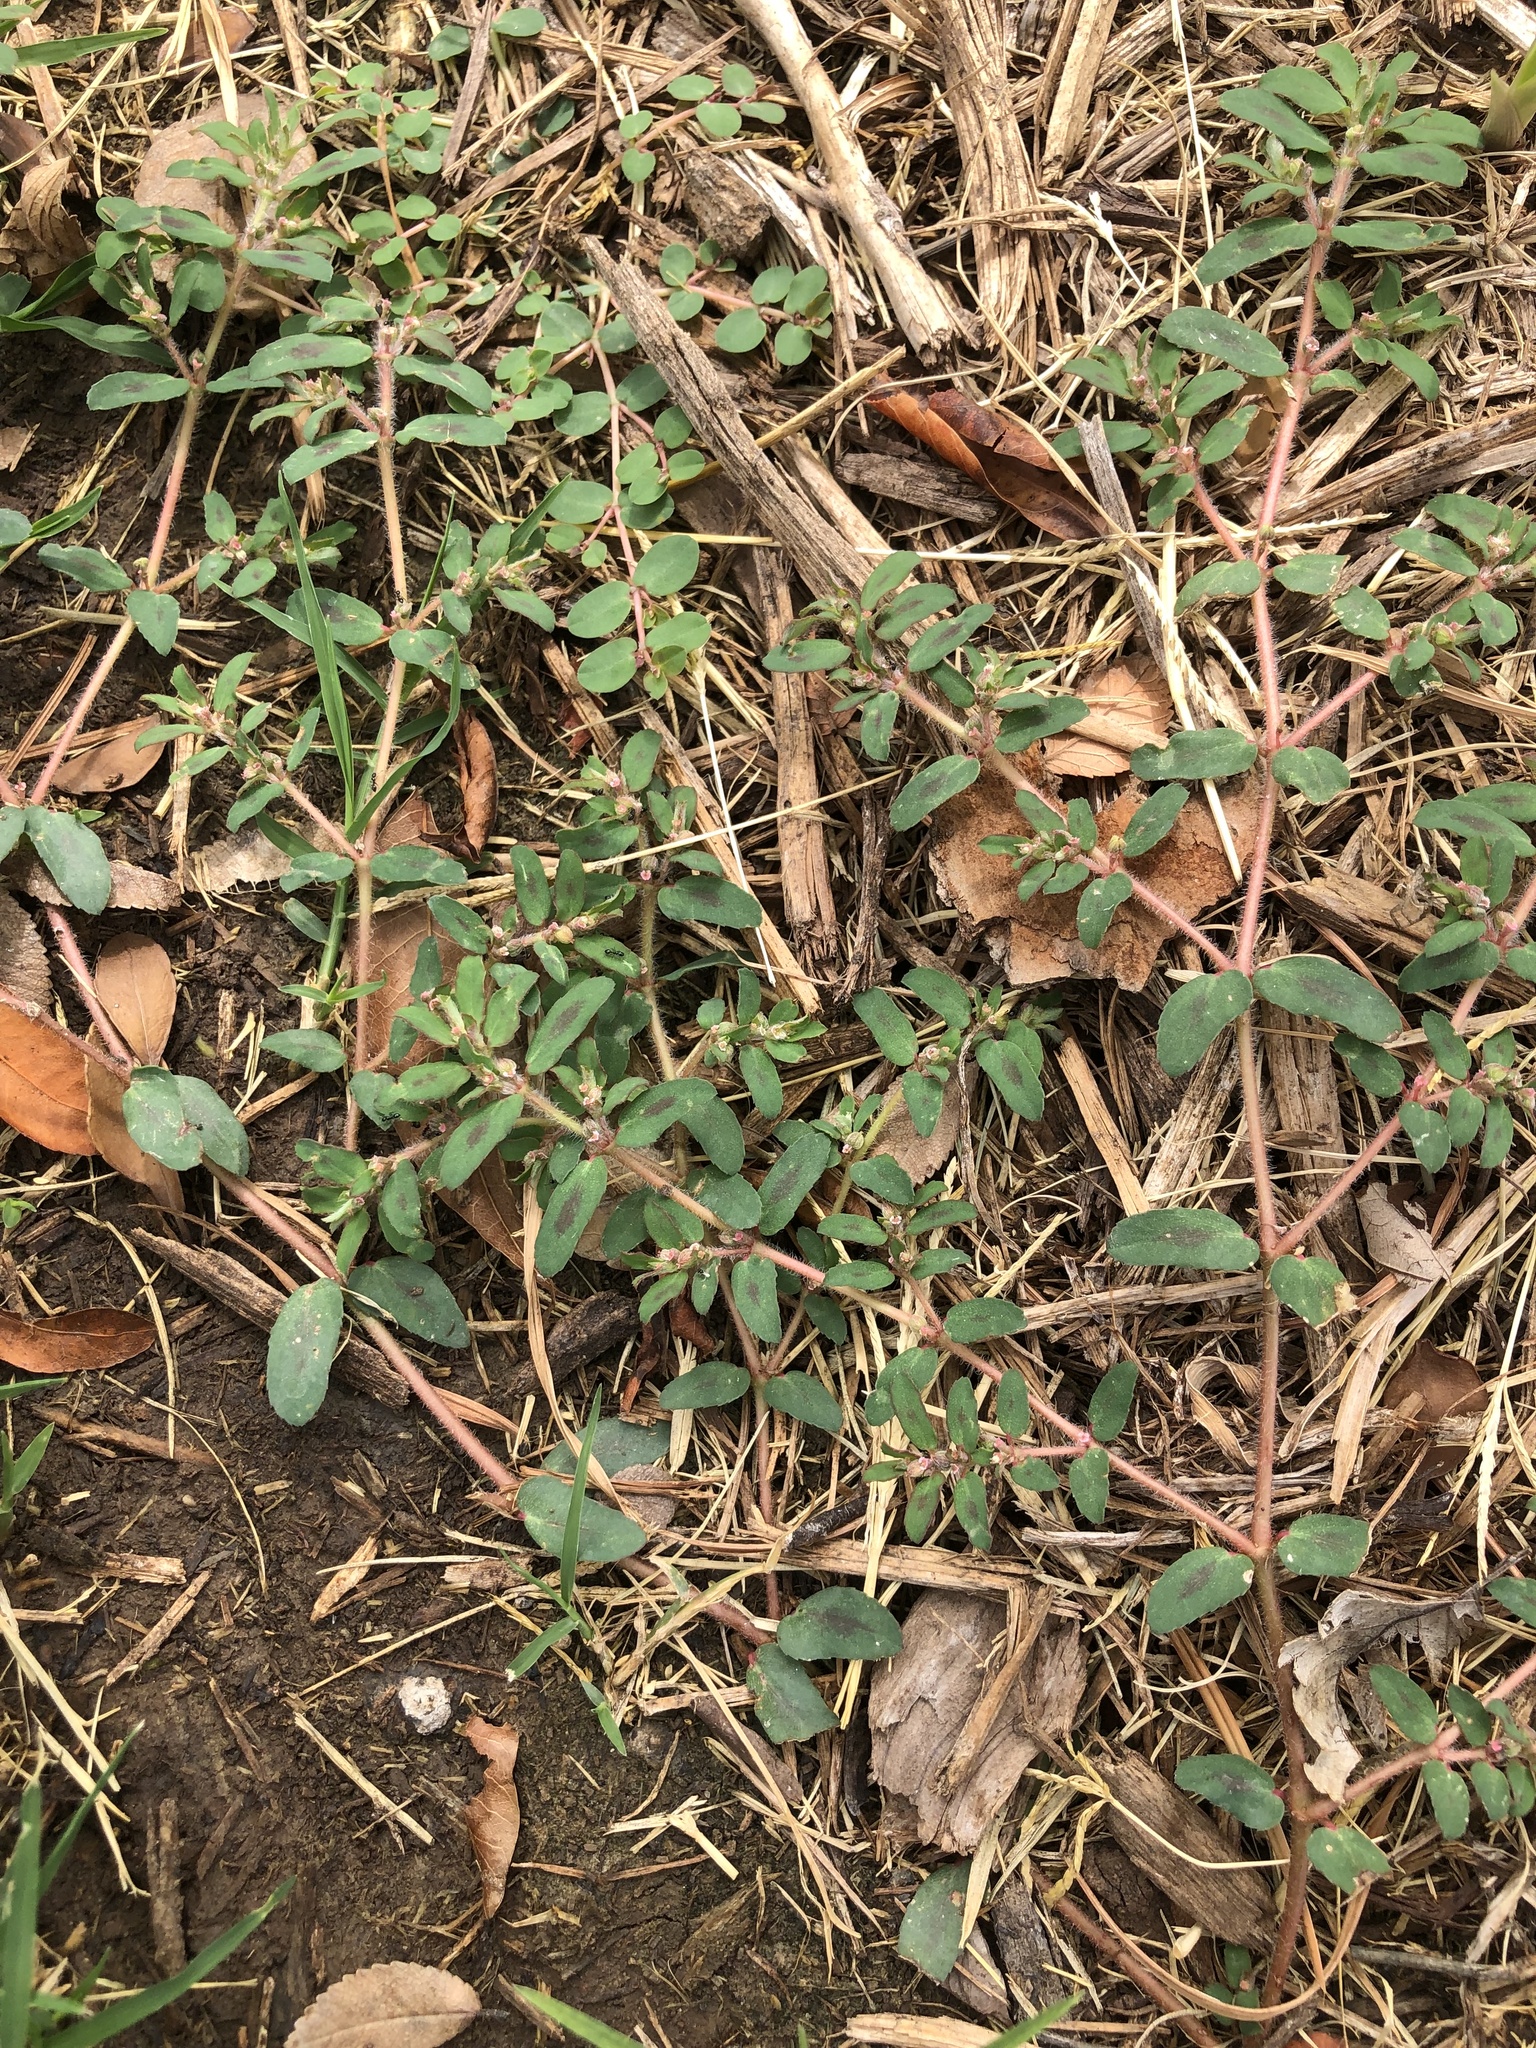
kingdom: Plantae
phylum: Tracheophyta
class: Magnoliopsida
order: Malpighiales
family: Euphorbiaceae
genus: Euphorbia
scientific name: Euphorbia maculata
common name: Spotted spurge
